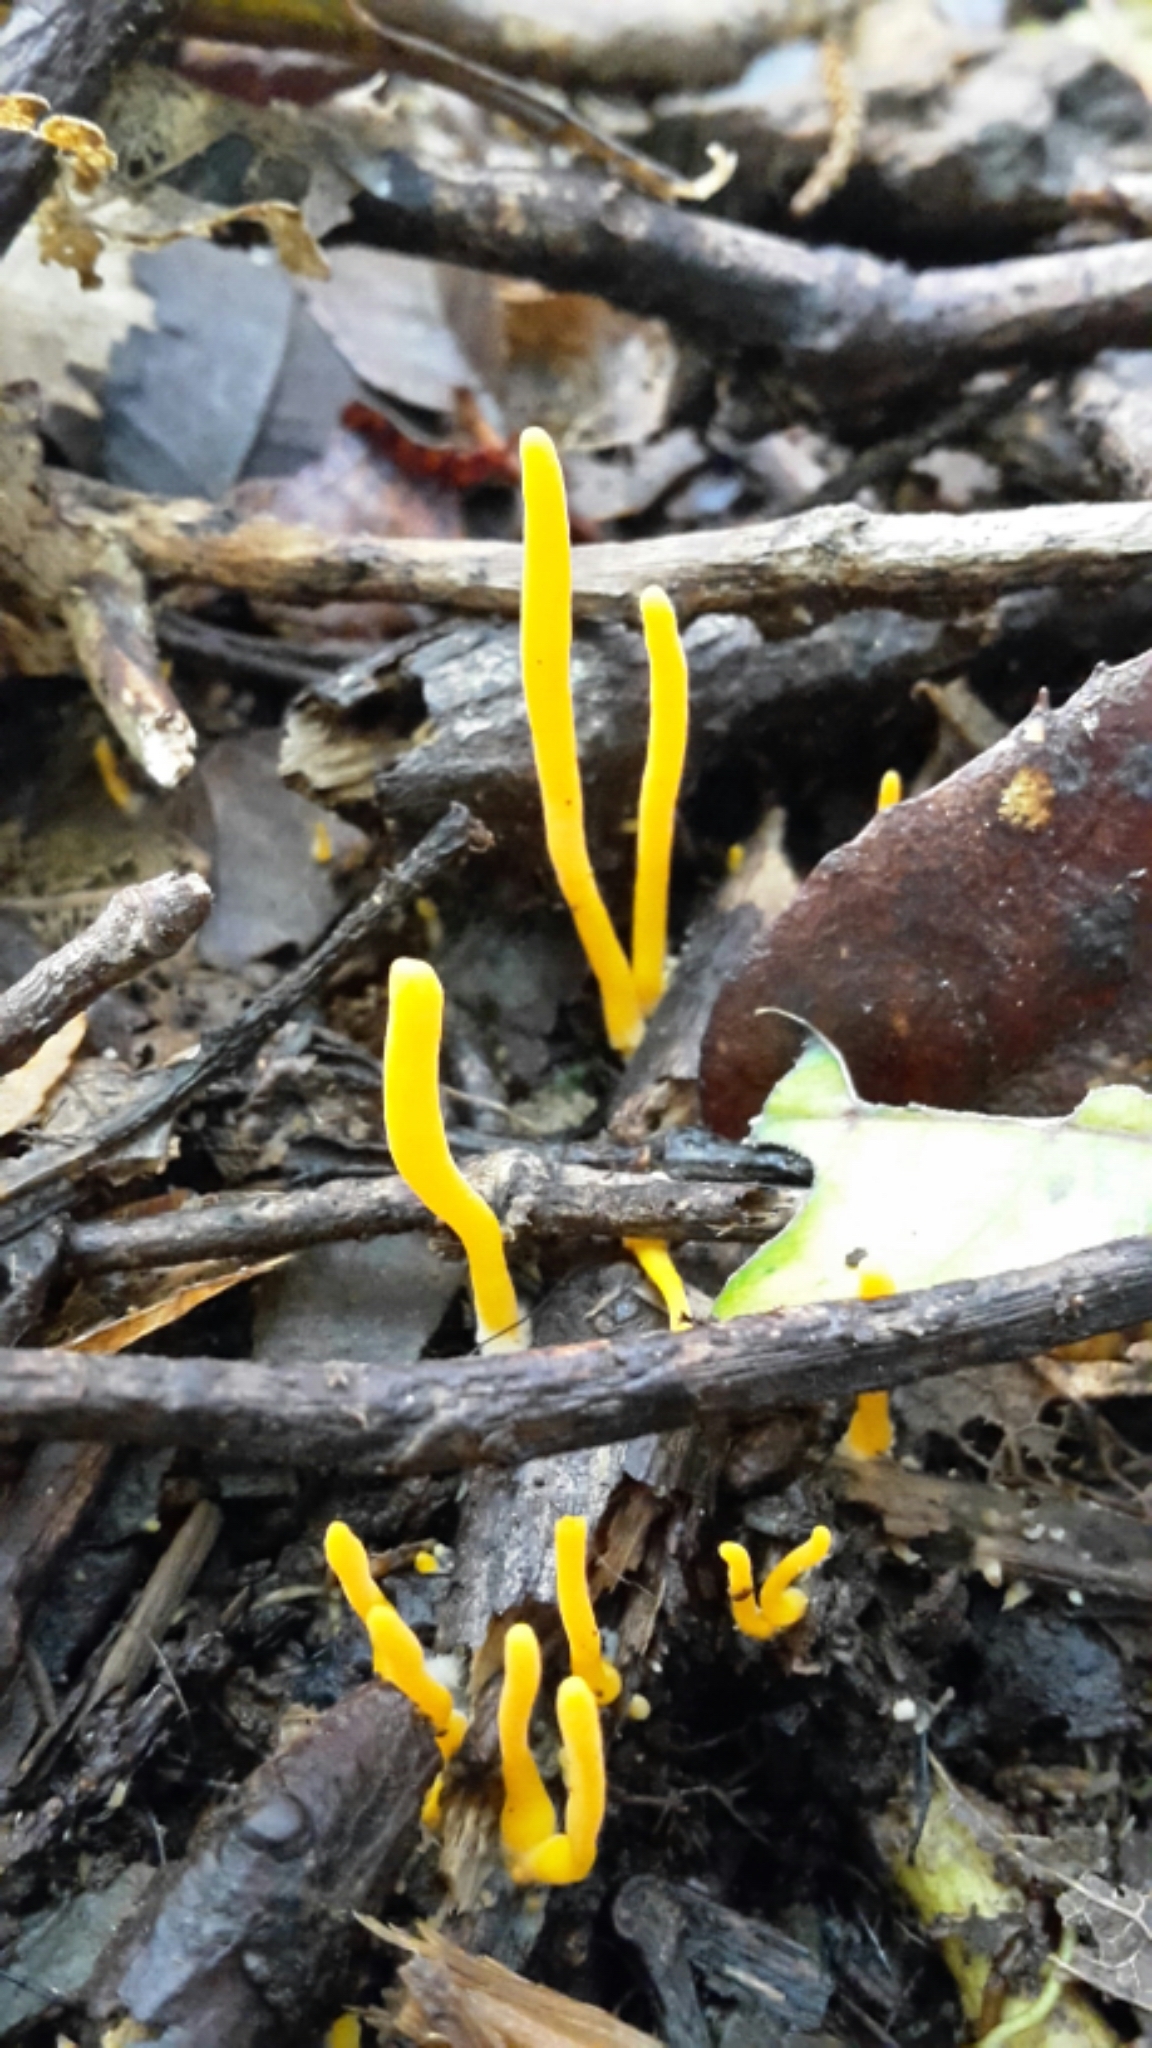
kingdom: Fungi
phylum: Basidiomycota
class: Agaricomycetes
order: Agaricales
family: Clavariaceae
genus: Clavulinopsis
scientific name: Clavulinopsis amoena
